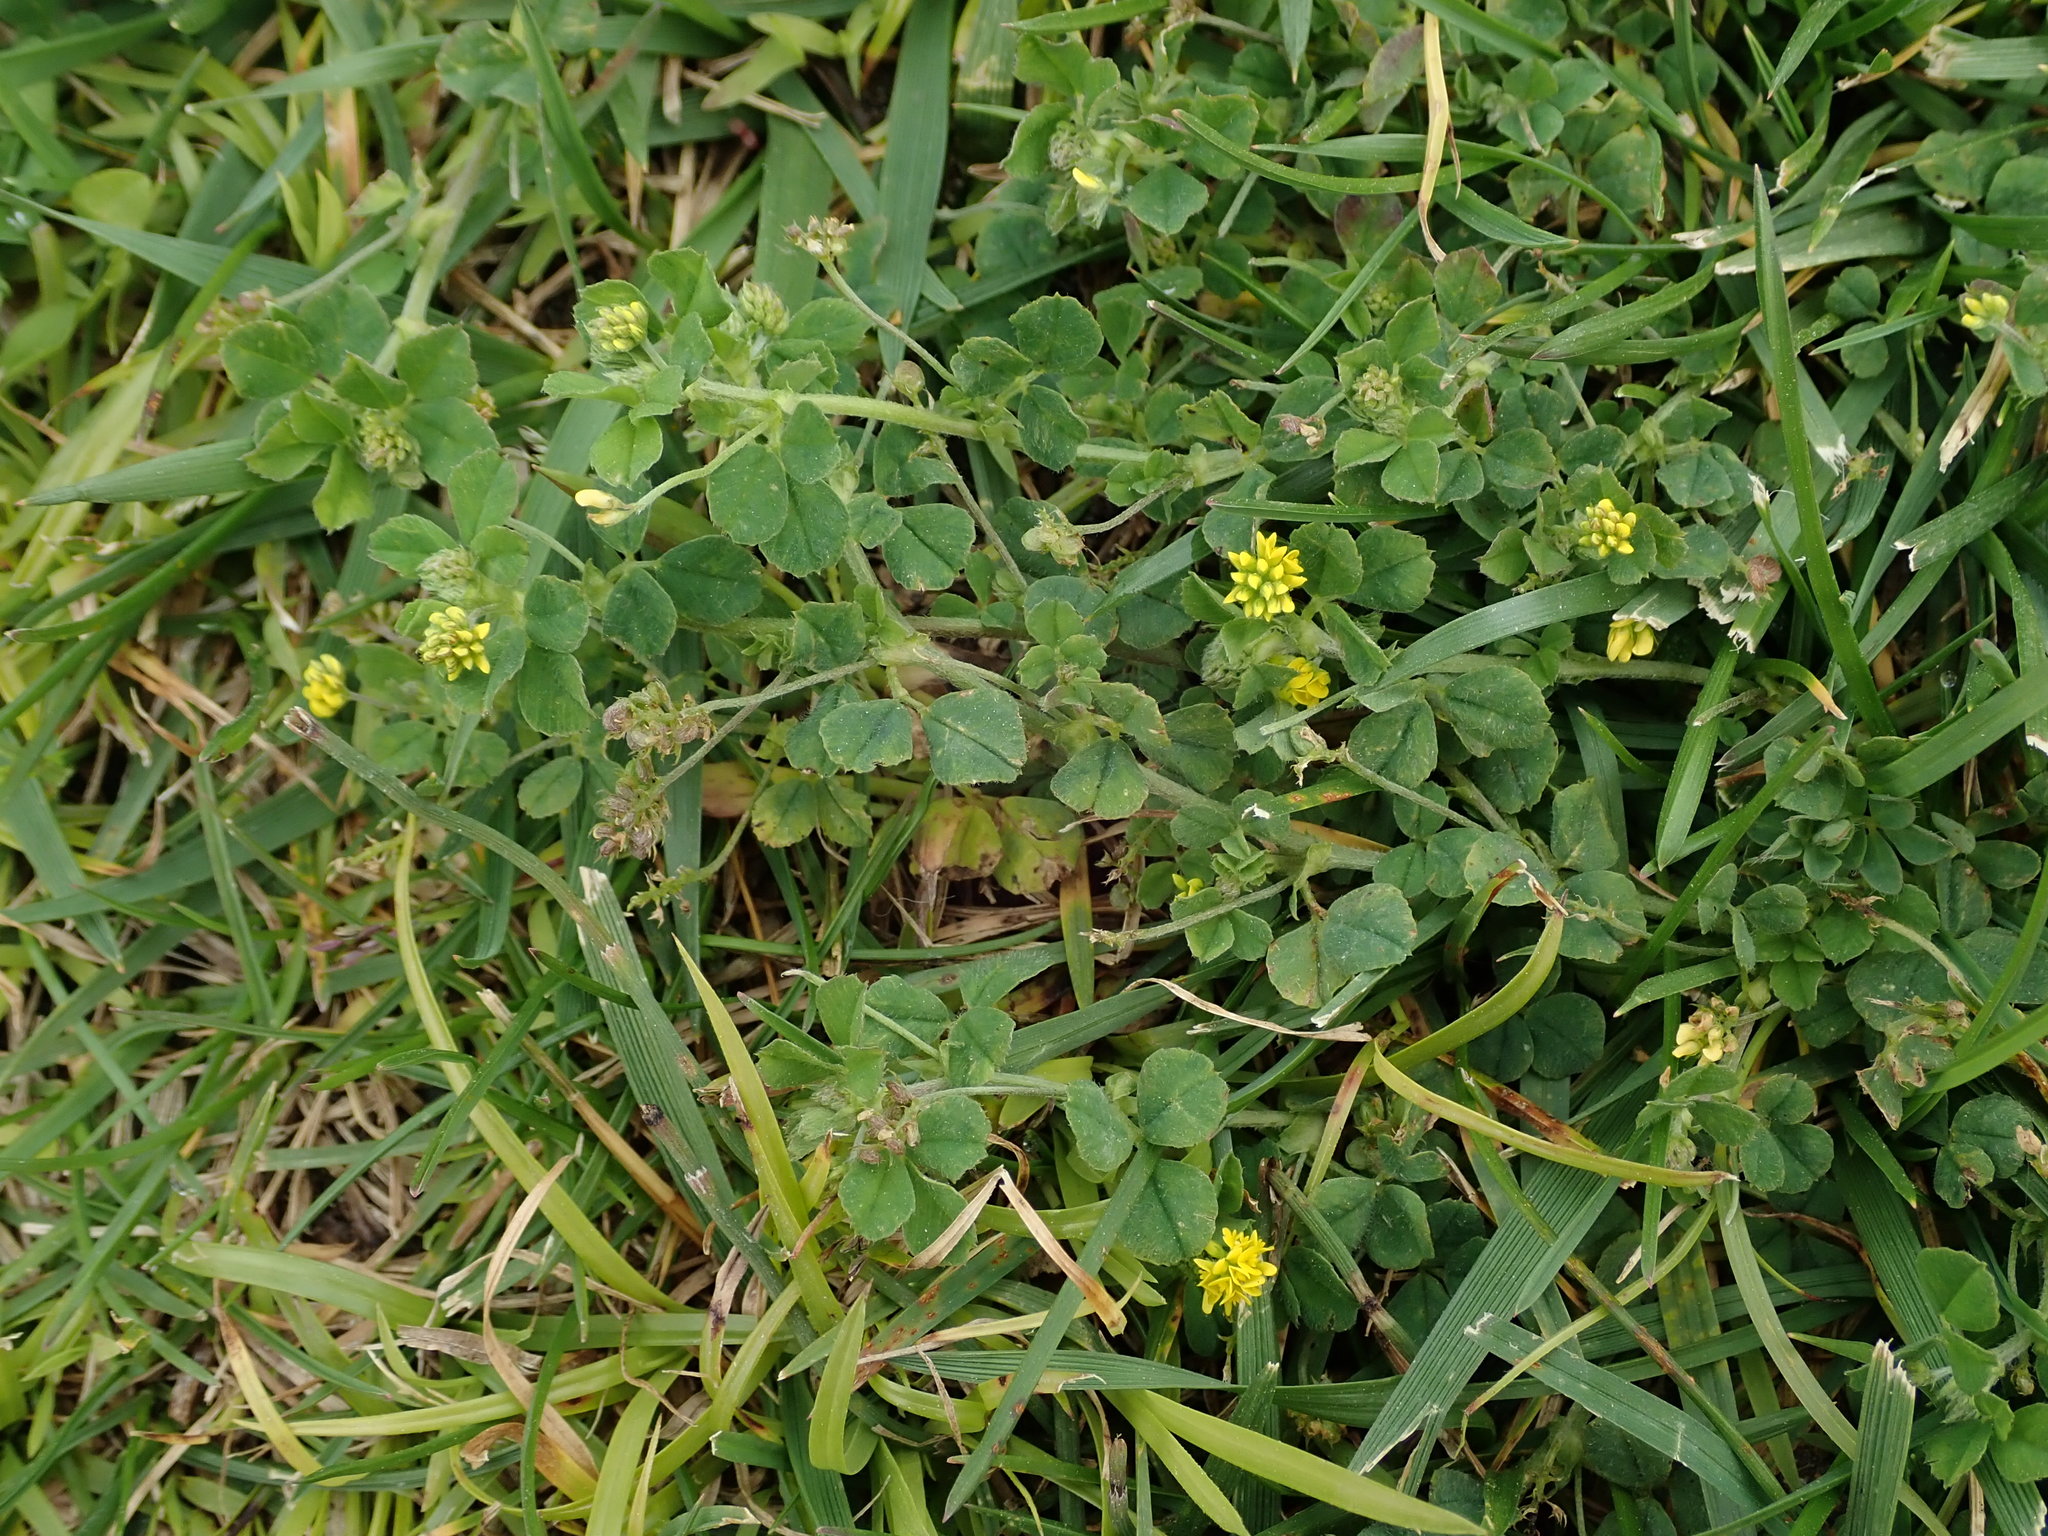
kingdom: Plantae
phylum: Tracheophyta
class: Magnoliopsida
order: Fabales
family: Fabaceae
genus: Medicago
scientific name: Medicago lupulina
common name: Black medick
